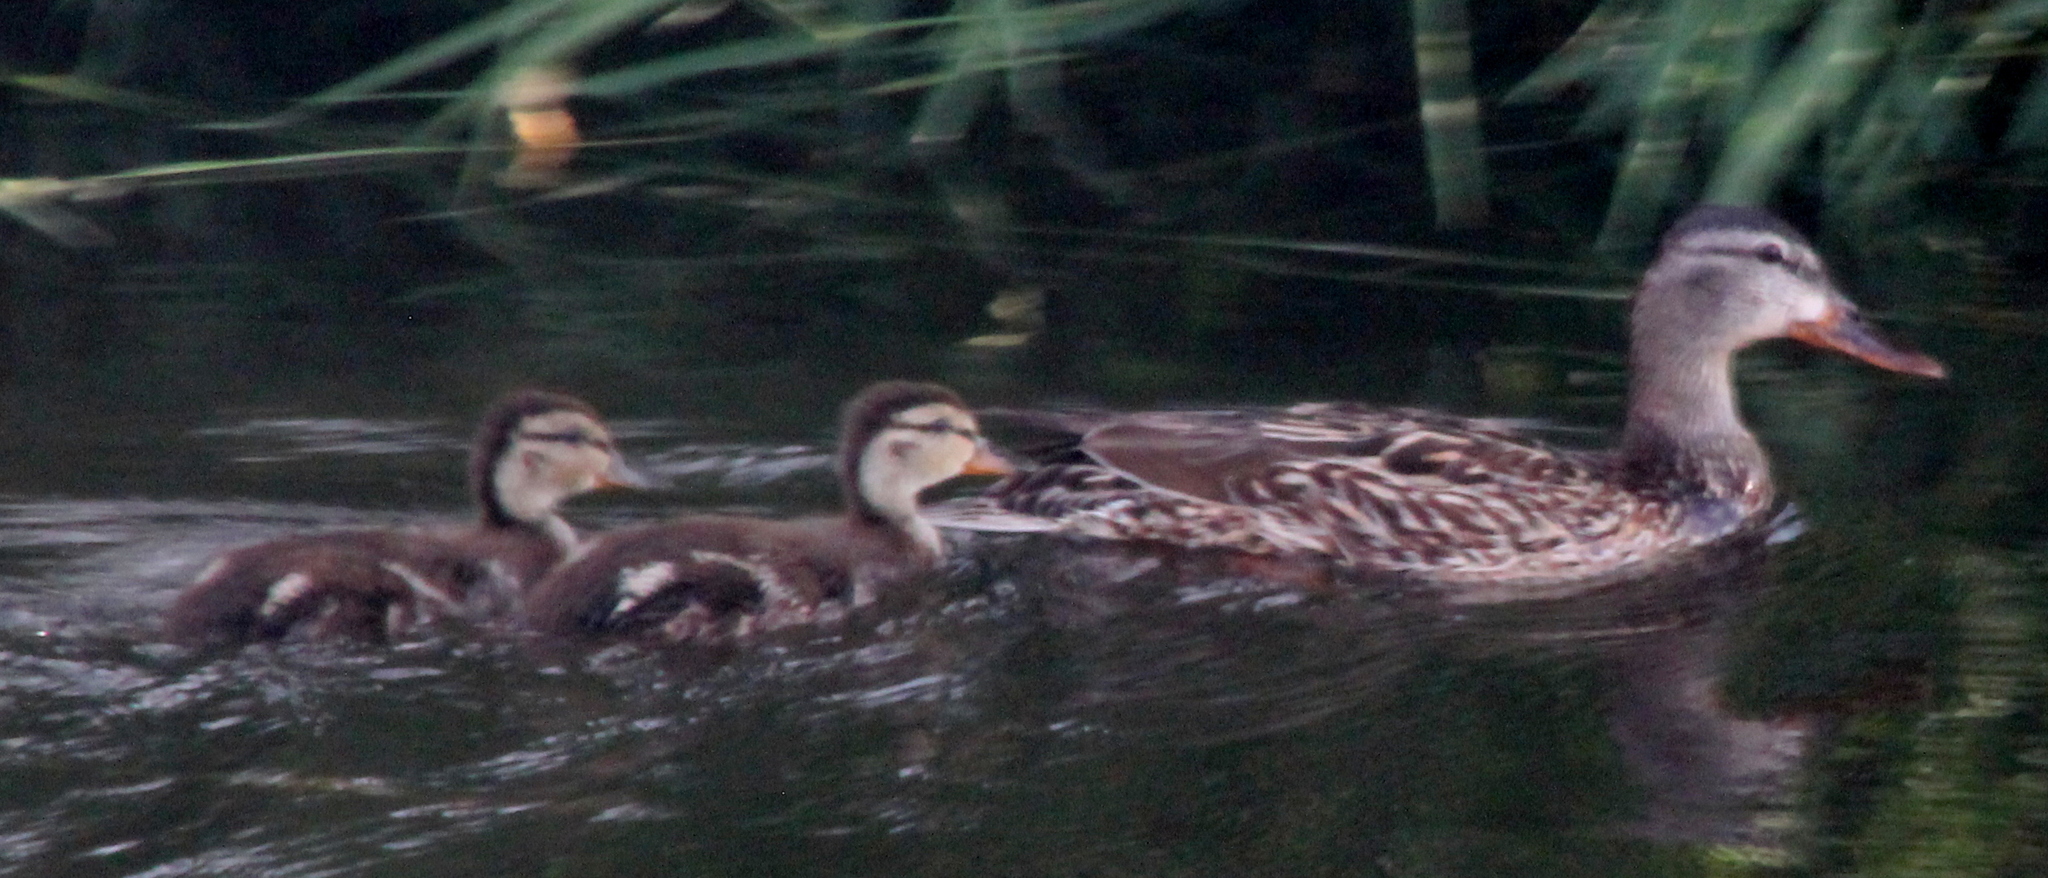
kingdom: Animalia
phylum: Chordata
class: Aves
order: Anseriformes
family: Anatidae
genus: Anas
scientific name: Anas platyrhynchos
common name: Mallard
